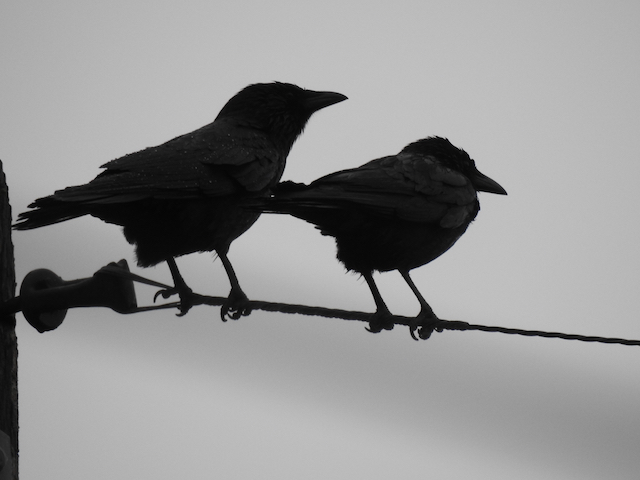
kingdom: Animalia
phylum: Chordata
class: Aves
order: Passeriformes
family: Corvidae
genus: Corvus
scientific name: Corvus brachyrhynchos
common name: American crow
